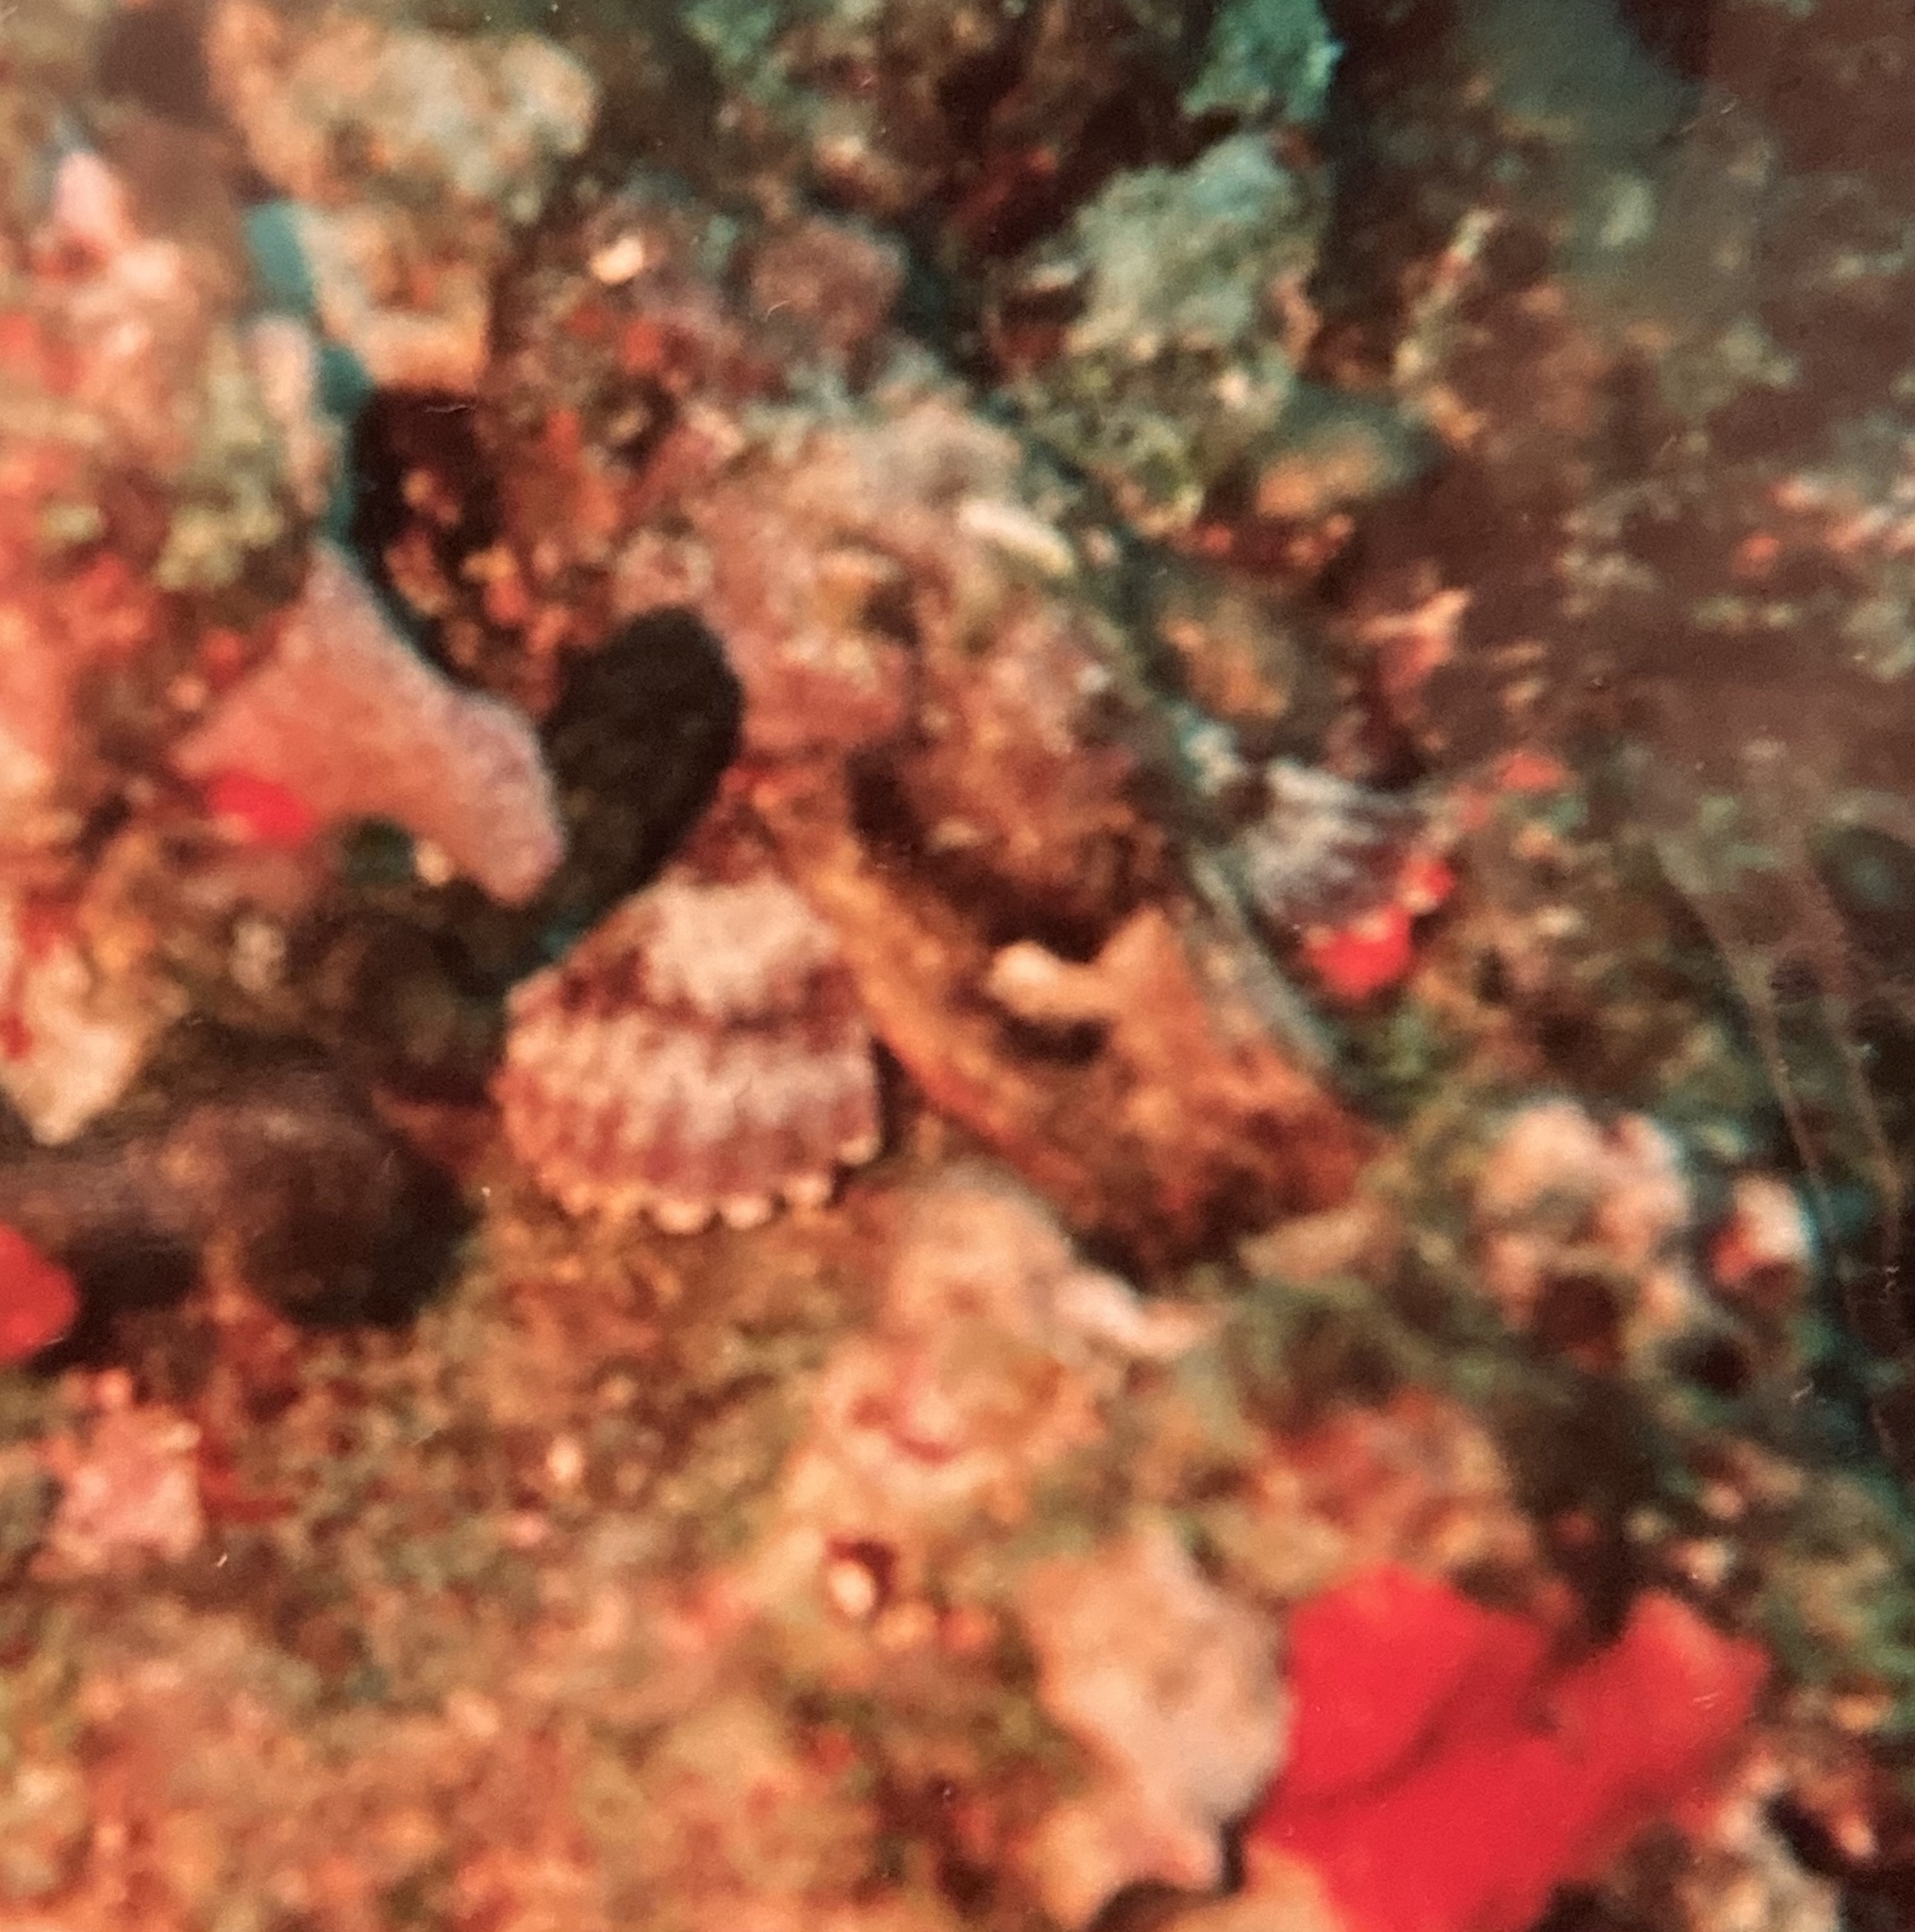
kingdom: Animalia
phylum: Chordata
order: Scorpaeniformes
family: Scorpaenidae
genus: Scorpaena
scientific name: Scorpaena plumieri
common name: Spotted scorpionfish
